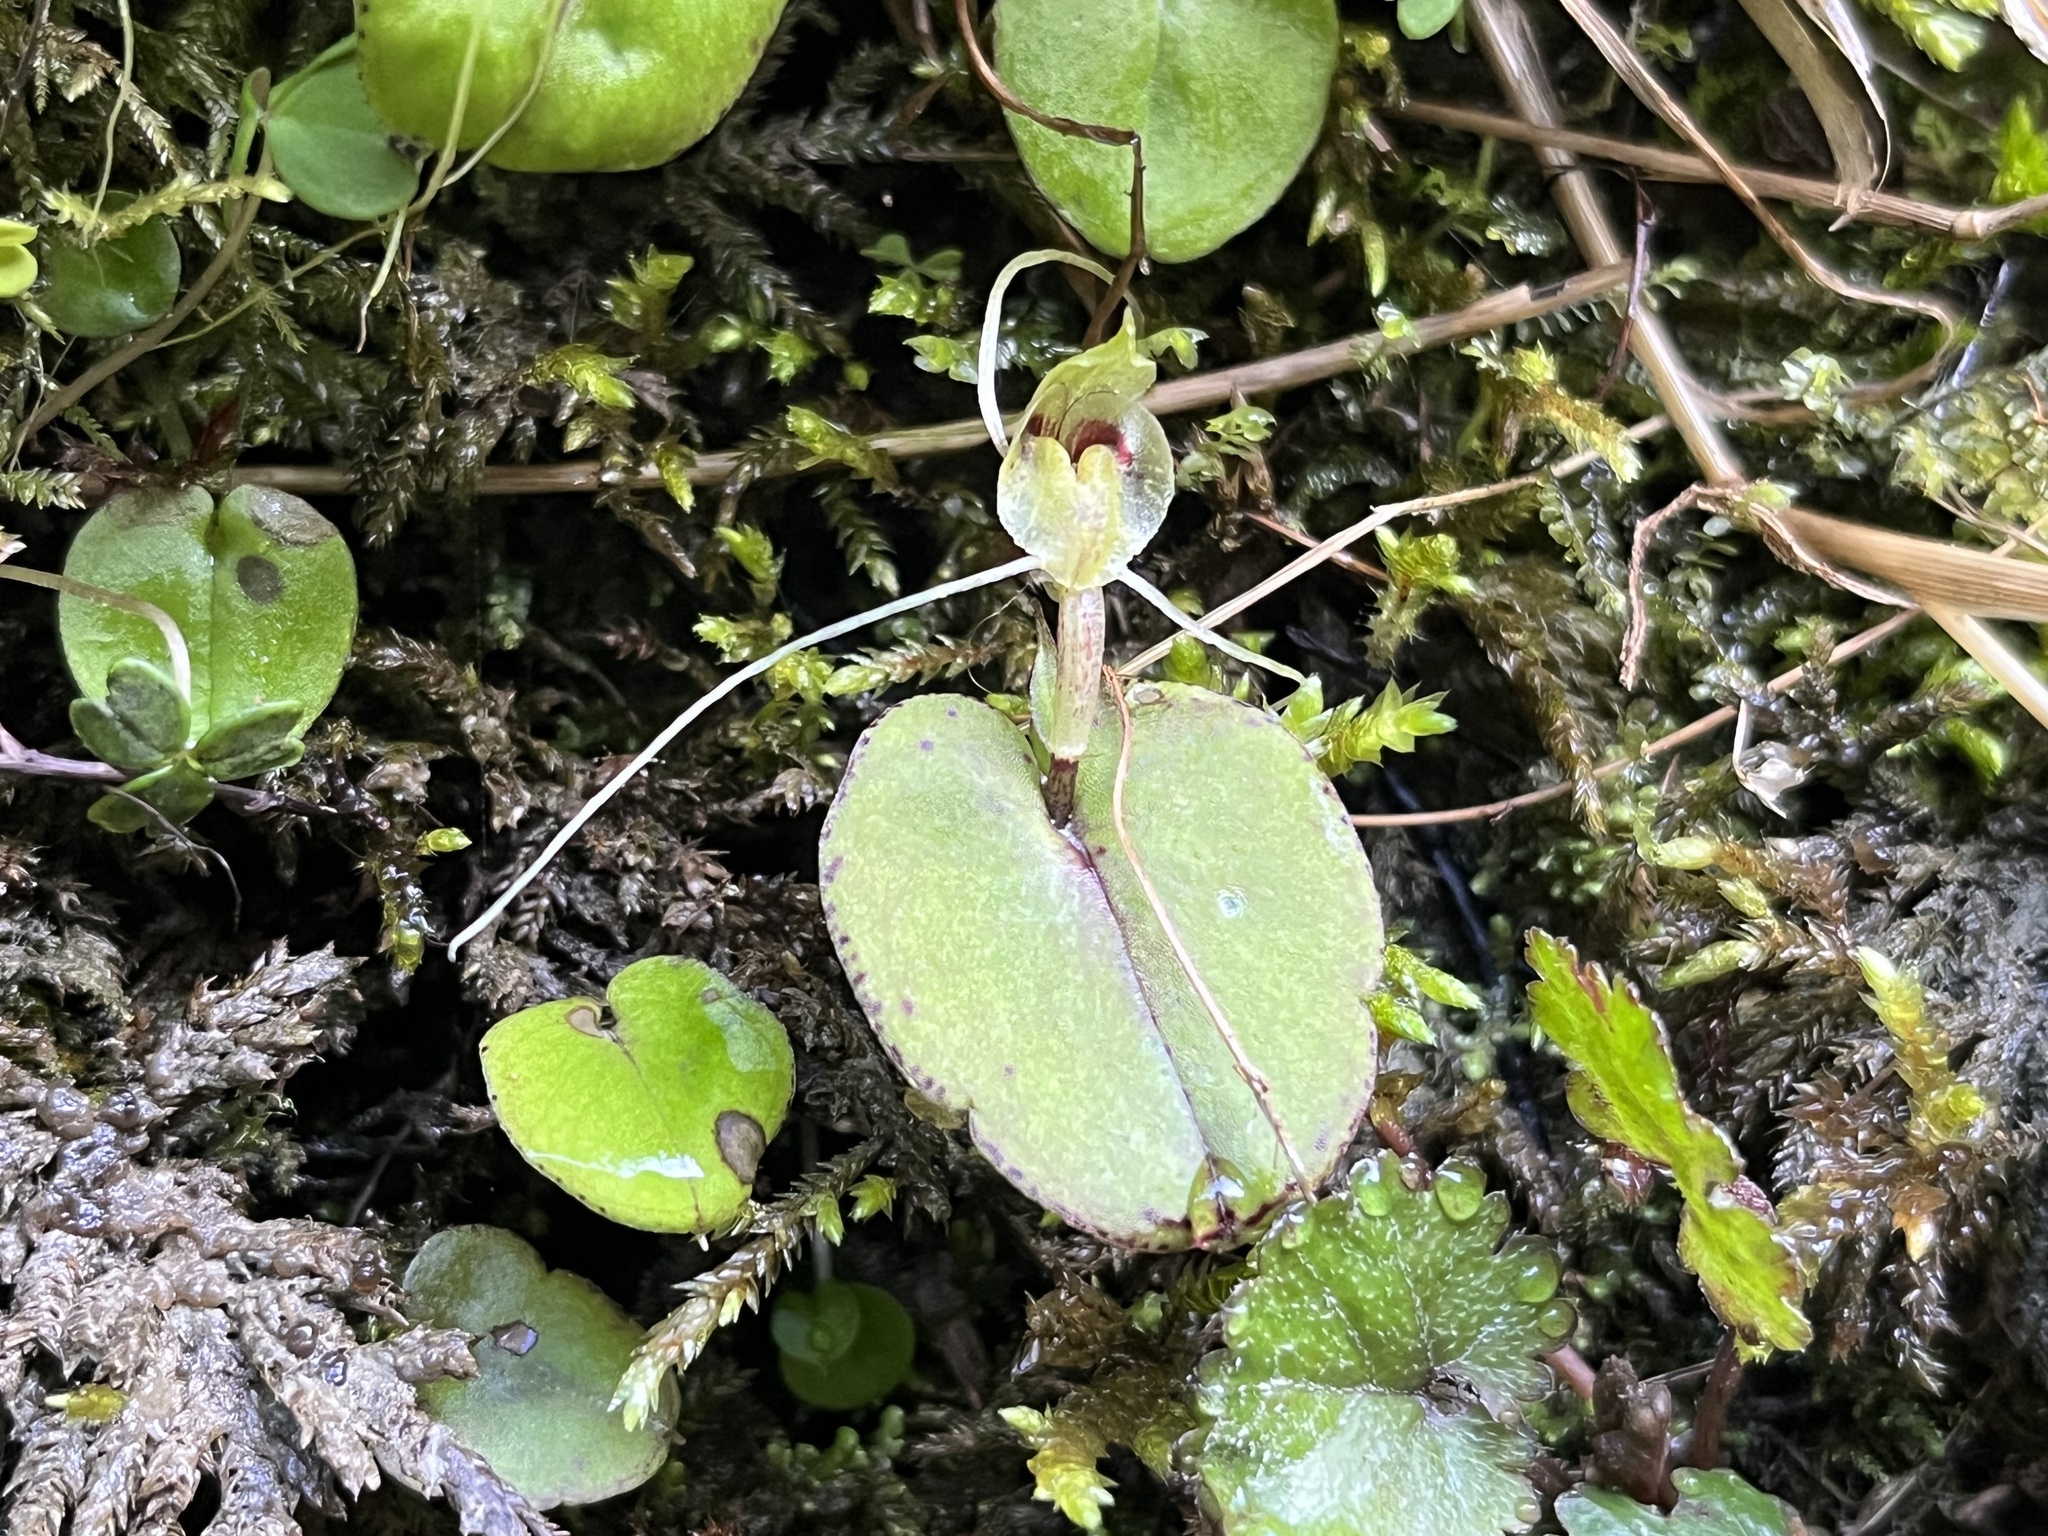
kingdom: Plantae
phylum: Tracheophyta
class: Liliopsida
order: Asparagales
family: Orchidaceae
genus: Corybas
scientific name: Corybas papa
